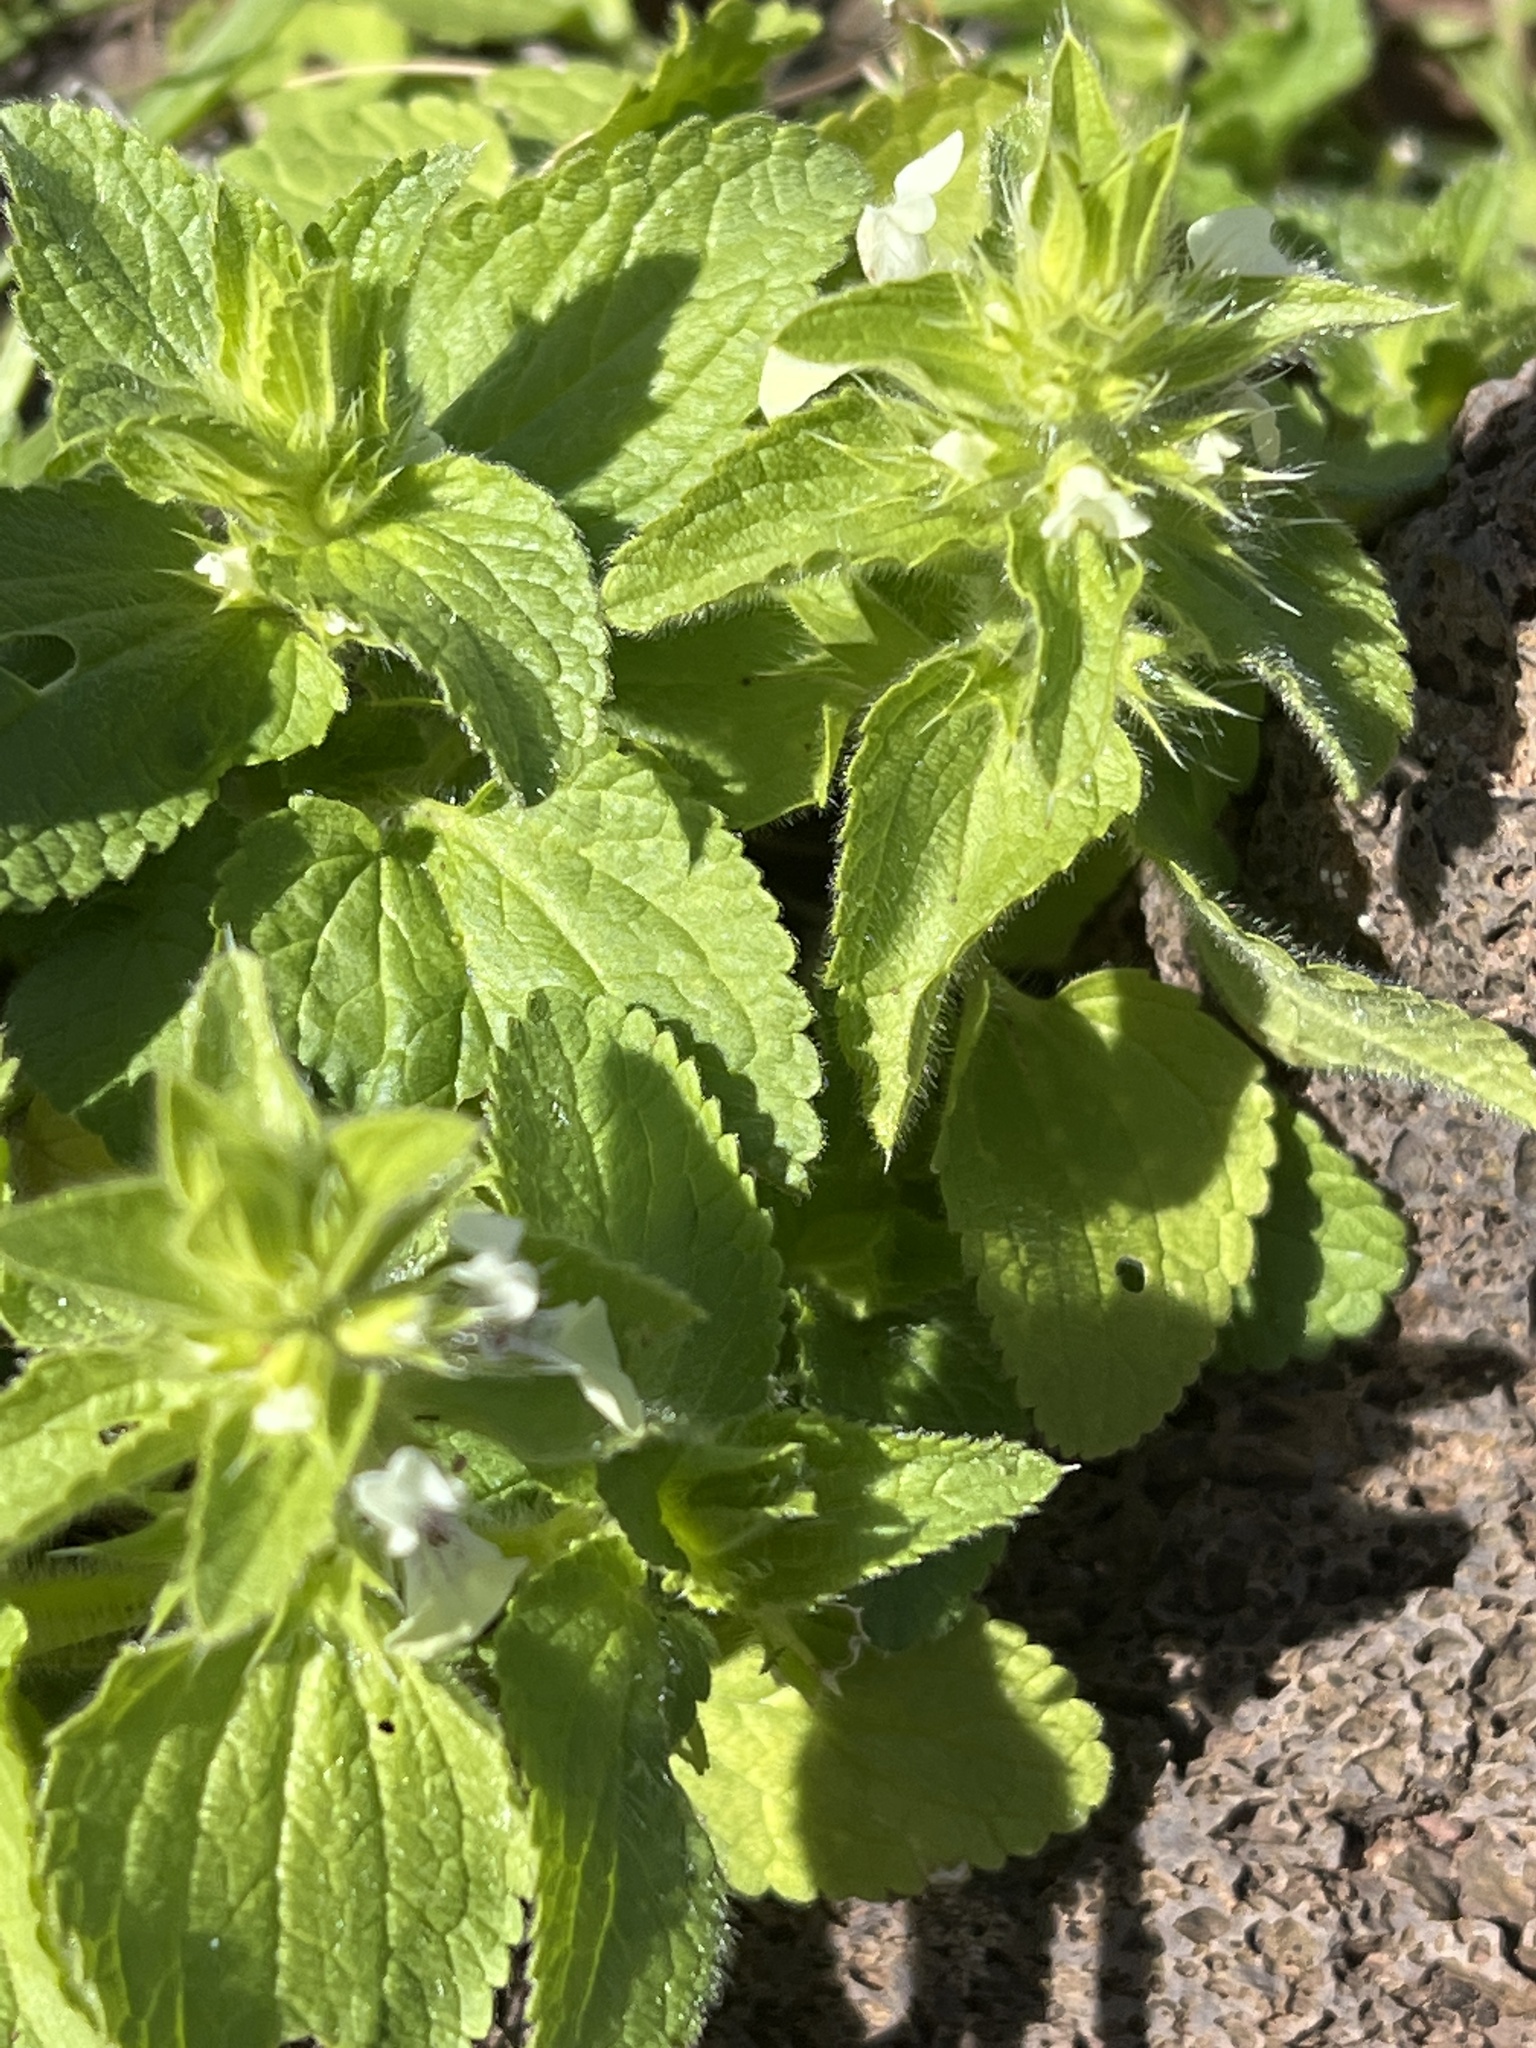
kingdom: Plantae
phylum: Tracheophyta
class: Magnoliopsida
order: Lamiales
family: Lamiaceae
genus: Stachys
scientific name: Stachys ocymastrum
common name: Italian hedgenettle
